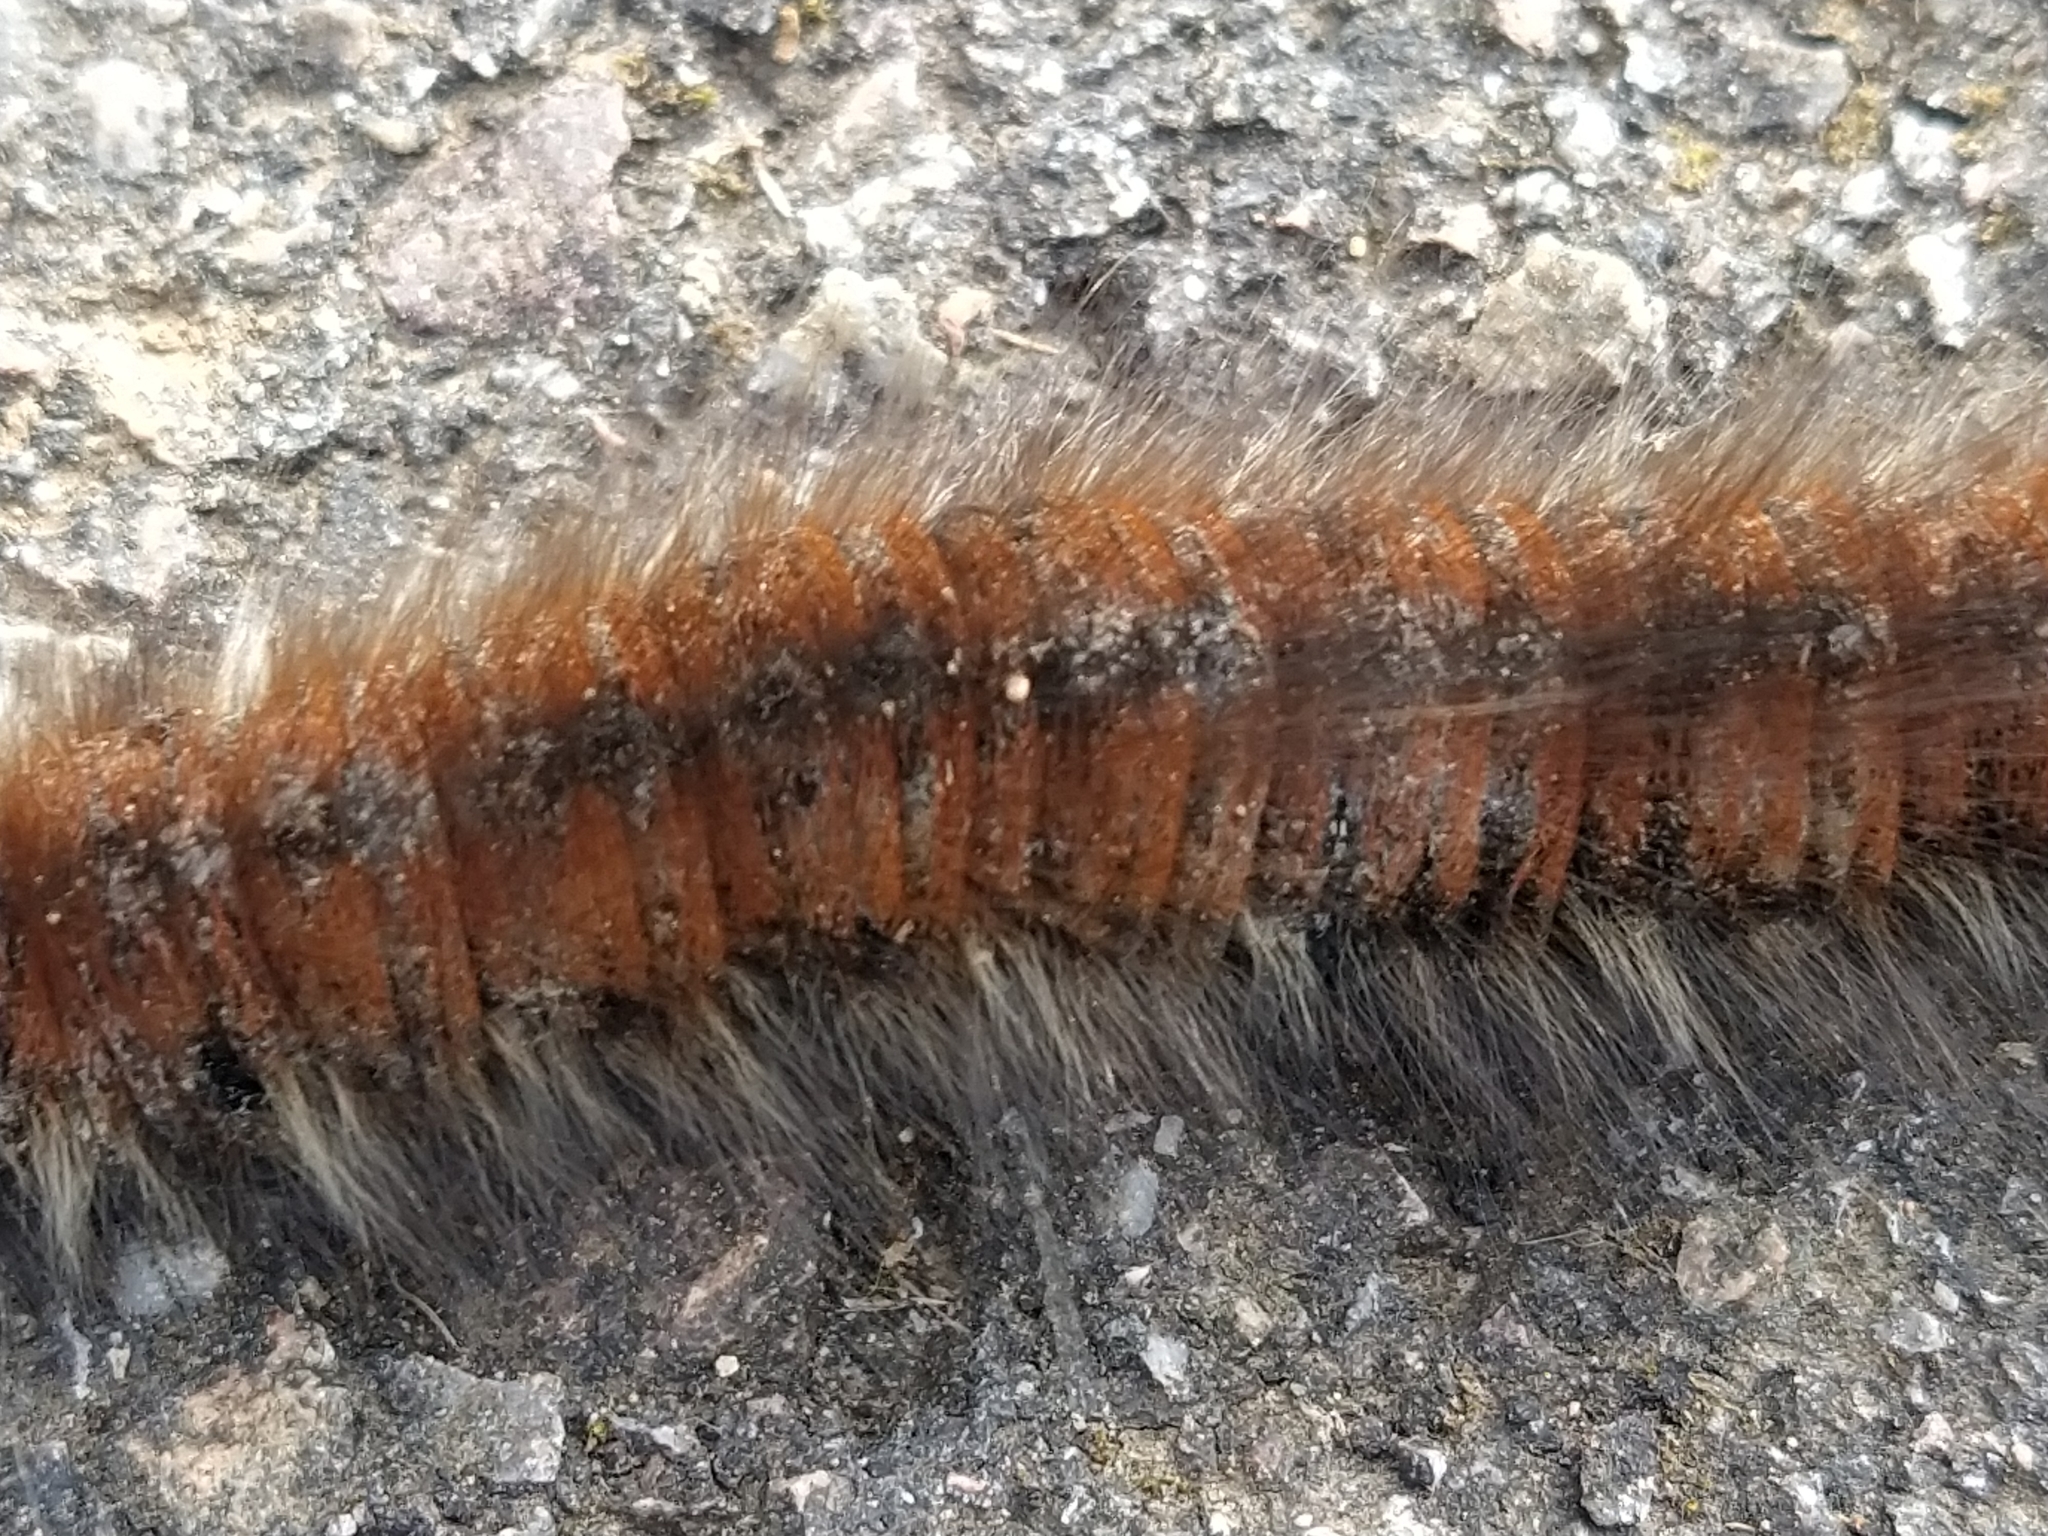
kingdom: Animalia
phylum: Arthropoda
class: Insecta
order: Lepidoptera
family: Lasiocampidae
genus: Macrothylacia
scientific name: Macrothylacia rubi
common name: Fox moth
